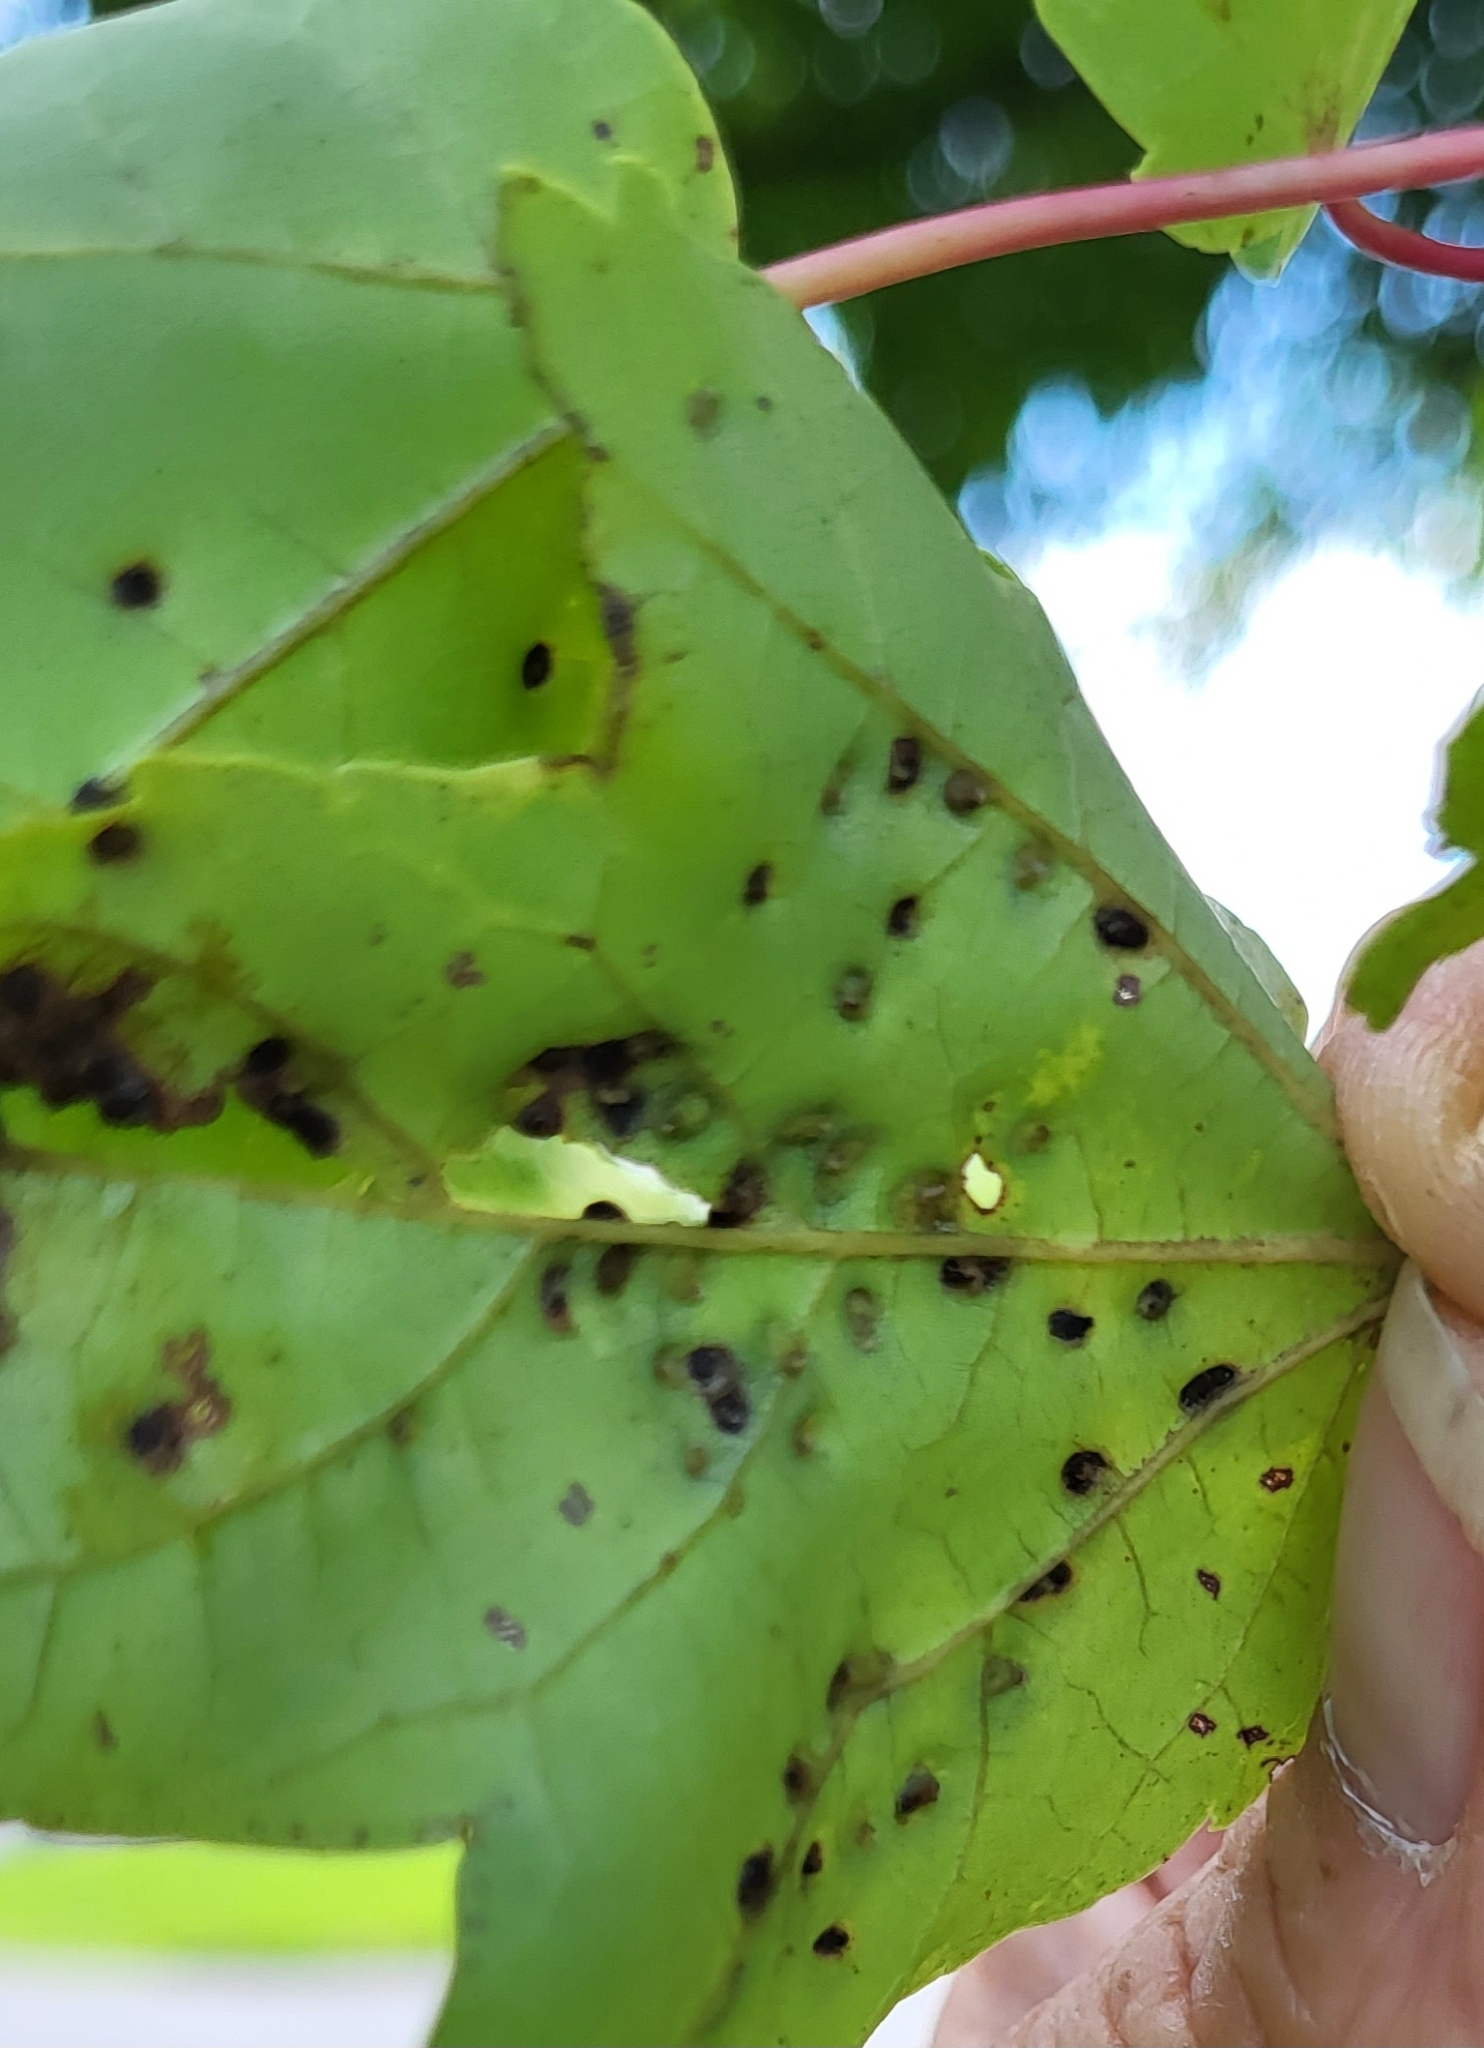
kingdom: Animalia
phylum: Arthropoda
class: Arachnida
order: Trombidiformes
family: Eriophyidae
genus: Vasates
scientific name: Vasates quadripedes
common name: Maple bladder gall mite
